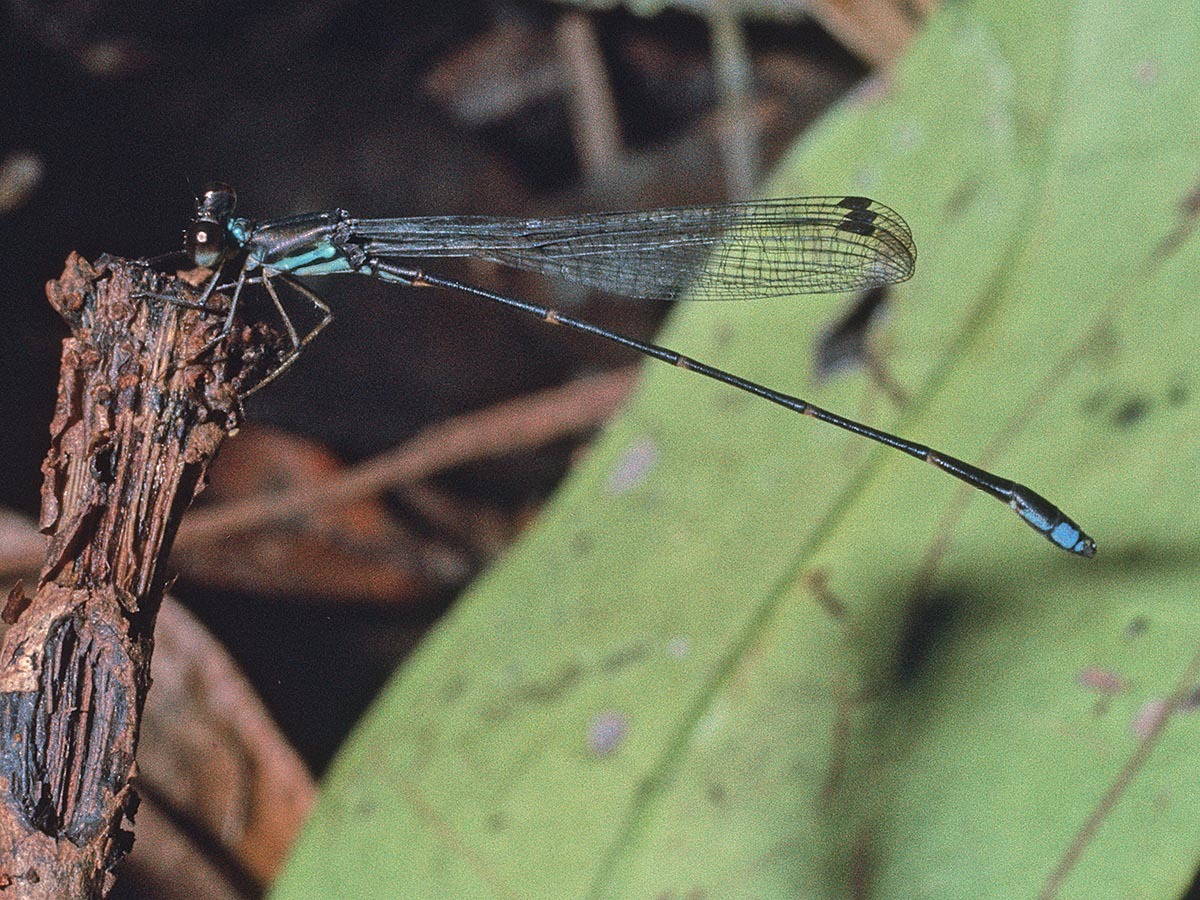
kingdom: Animalia
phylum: Arthropoda
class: Insecta
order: Odonata
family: Platystictidae
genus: Palaemnema
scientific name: Palaemnema joanetta
